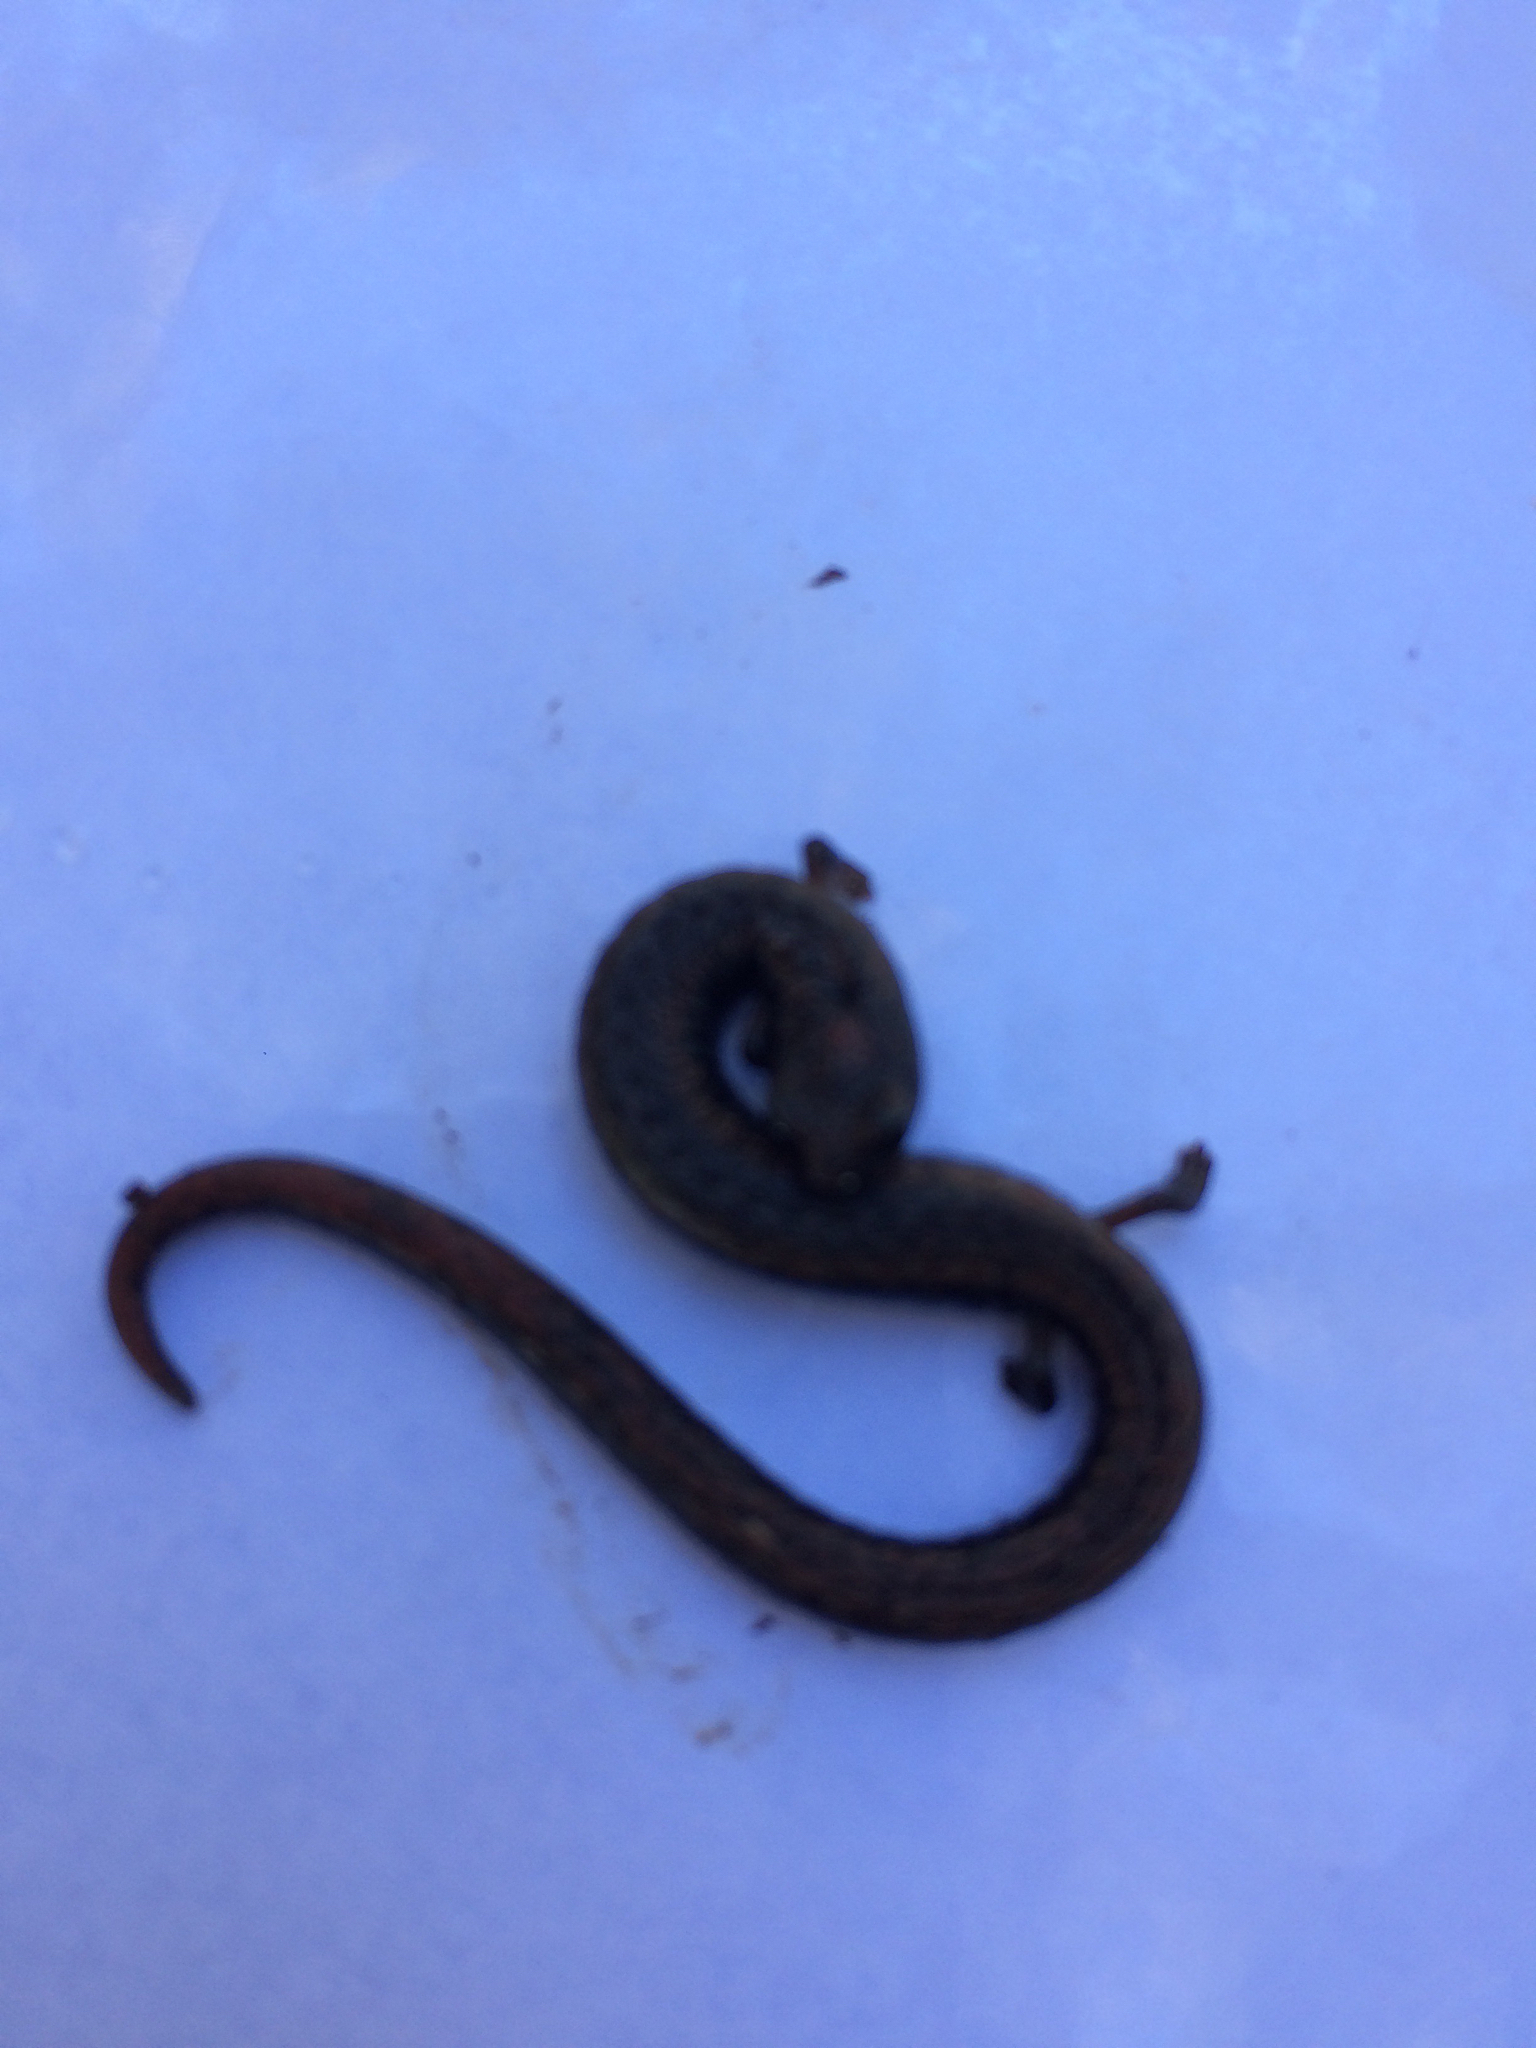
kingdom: Animalia
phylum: Chordata
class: Amphibia
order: Caudata
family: Plethodontidae
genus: Batrachoseps
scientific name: Batrachoseps attenuatus
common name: California slender salamander
